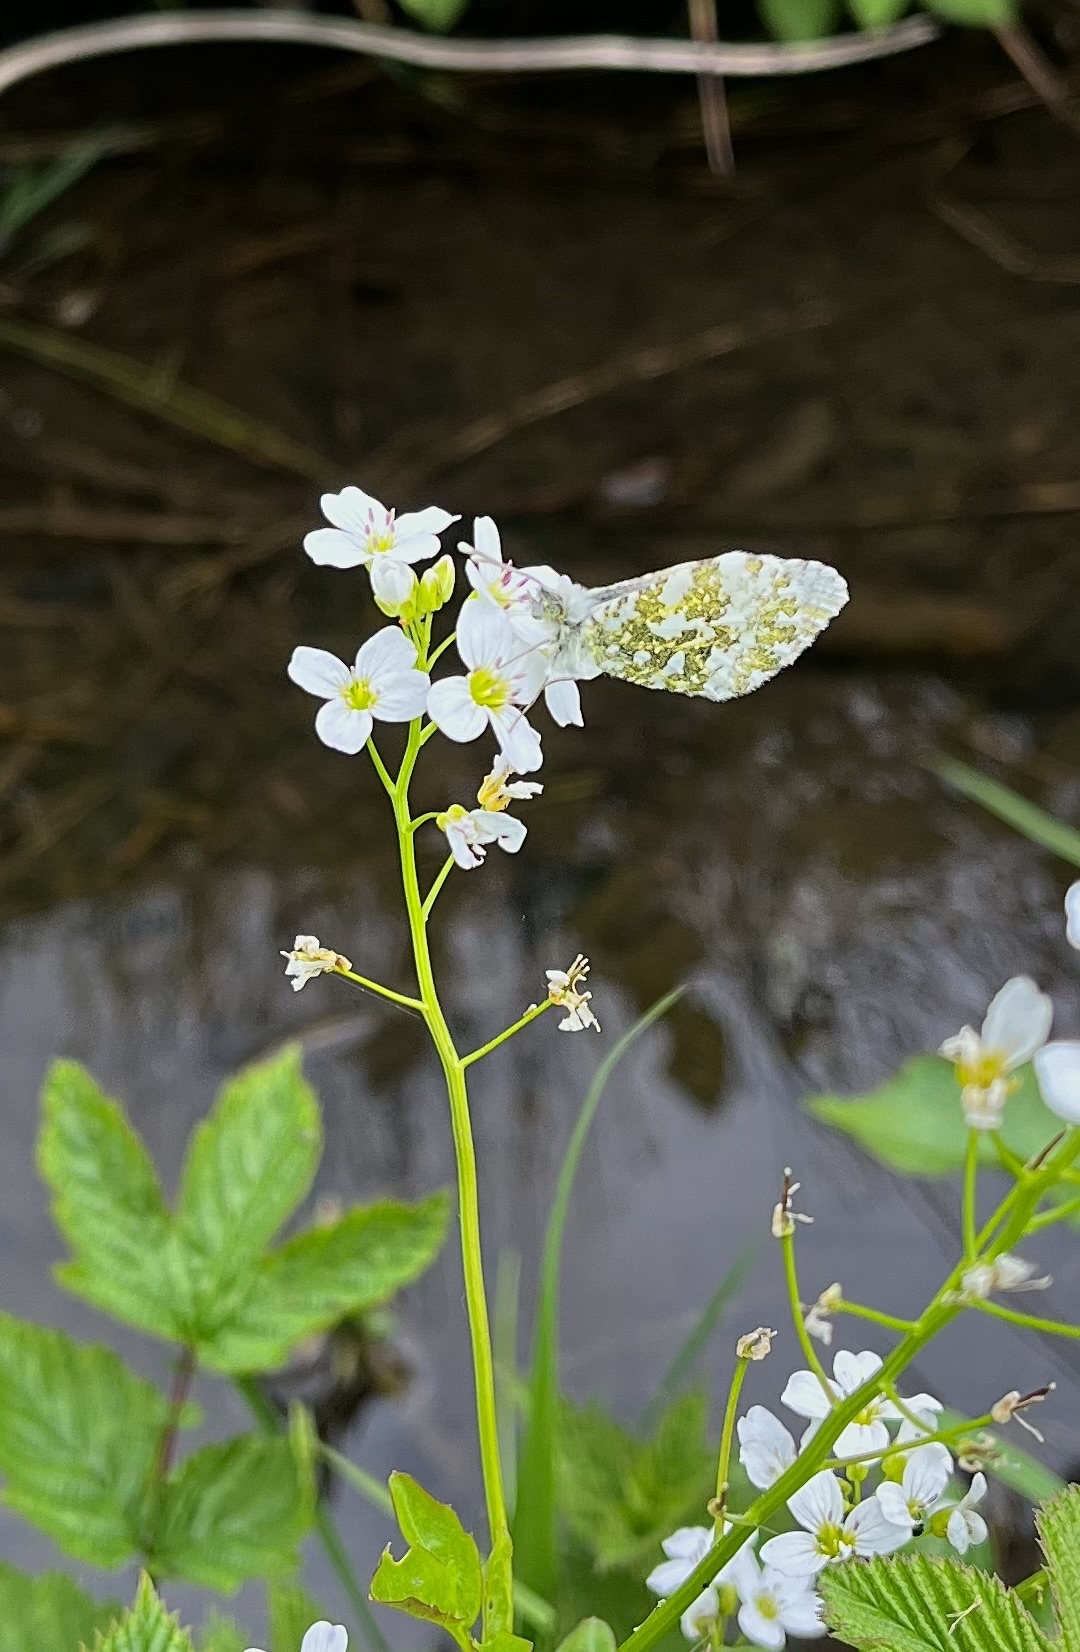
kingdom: Animalia
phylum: Arthropoda
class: Insecta
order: Lepidoptera
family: Pieridae
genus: Anthocharis
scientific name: Anthocharis cardamines
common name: Orange-tip
